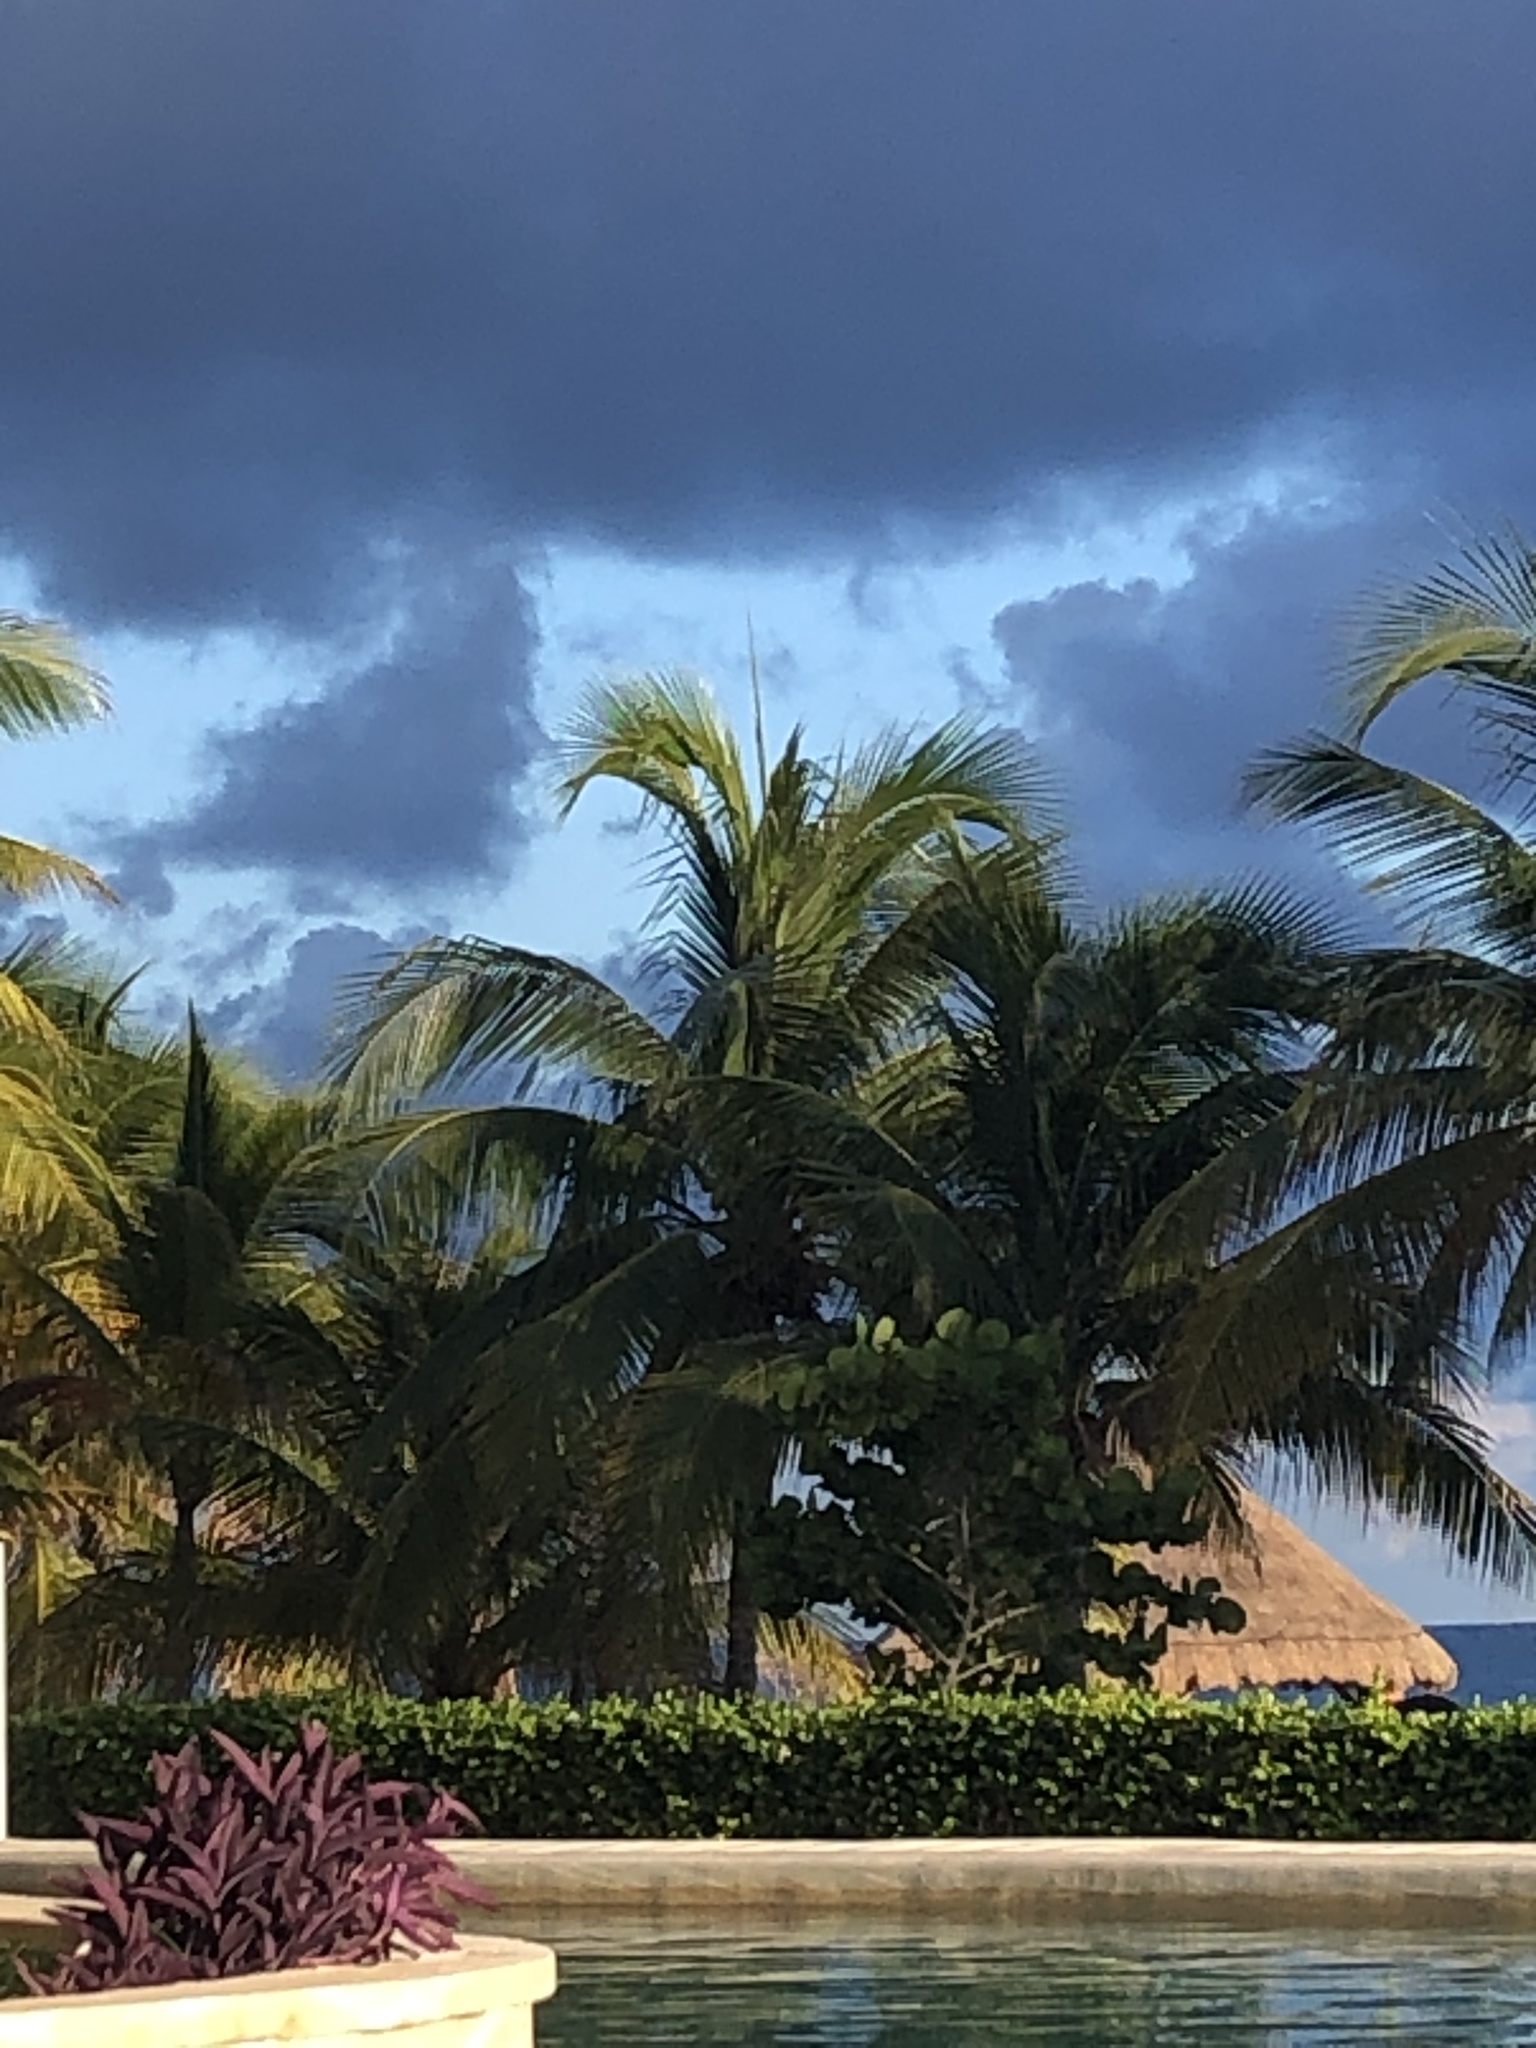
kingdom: Plantae
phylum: Tracheophyta
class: Liliopsida
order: Arecales
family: Arecaceae
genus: Cocos
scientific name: Cocos nucifera
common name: Coconut palm
